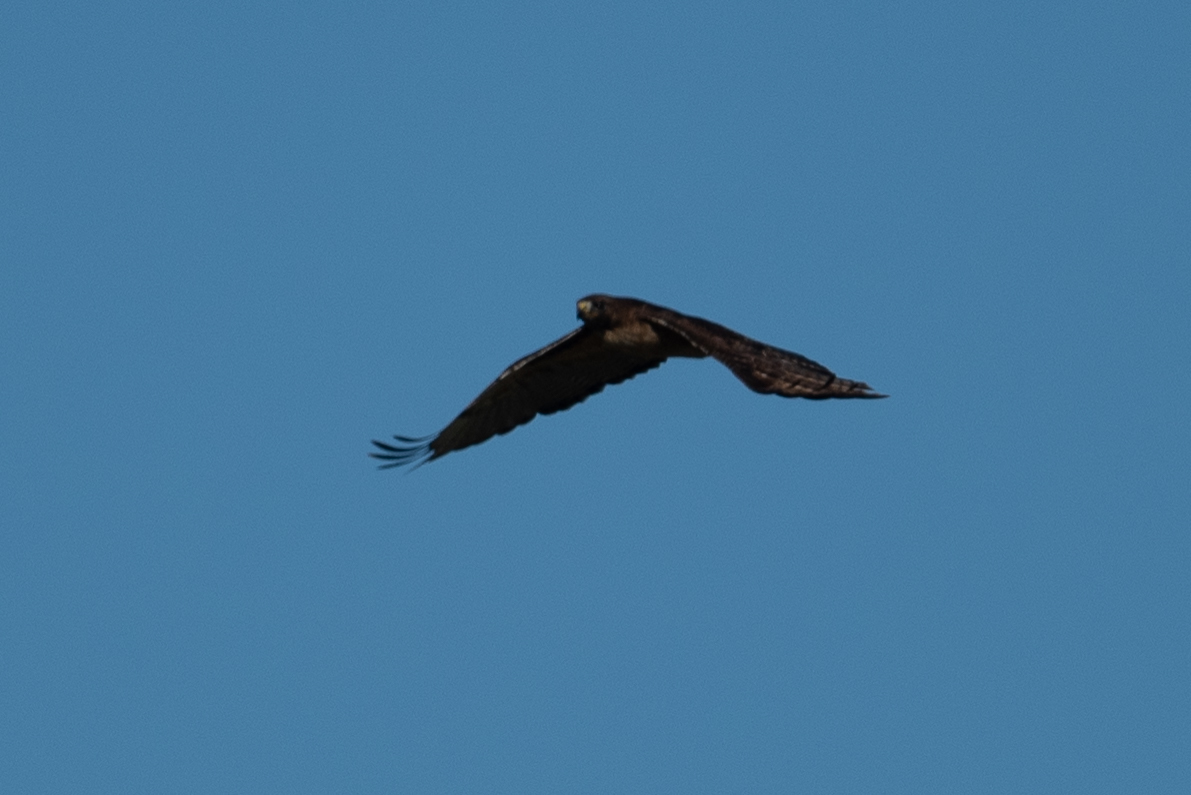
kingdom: Animalia
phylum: Chordata
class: Aves
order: Accipitriformes
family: Accipitridae
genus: Buteo
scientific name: Buteo jamaicensis
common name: Red-tailed hawk
